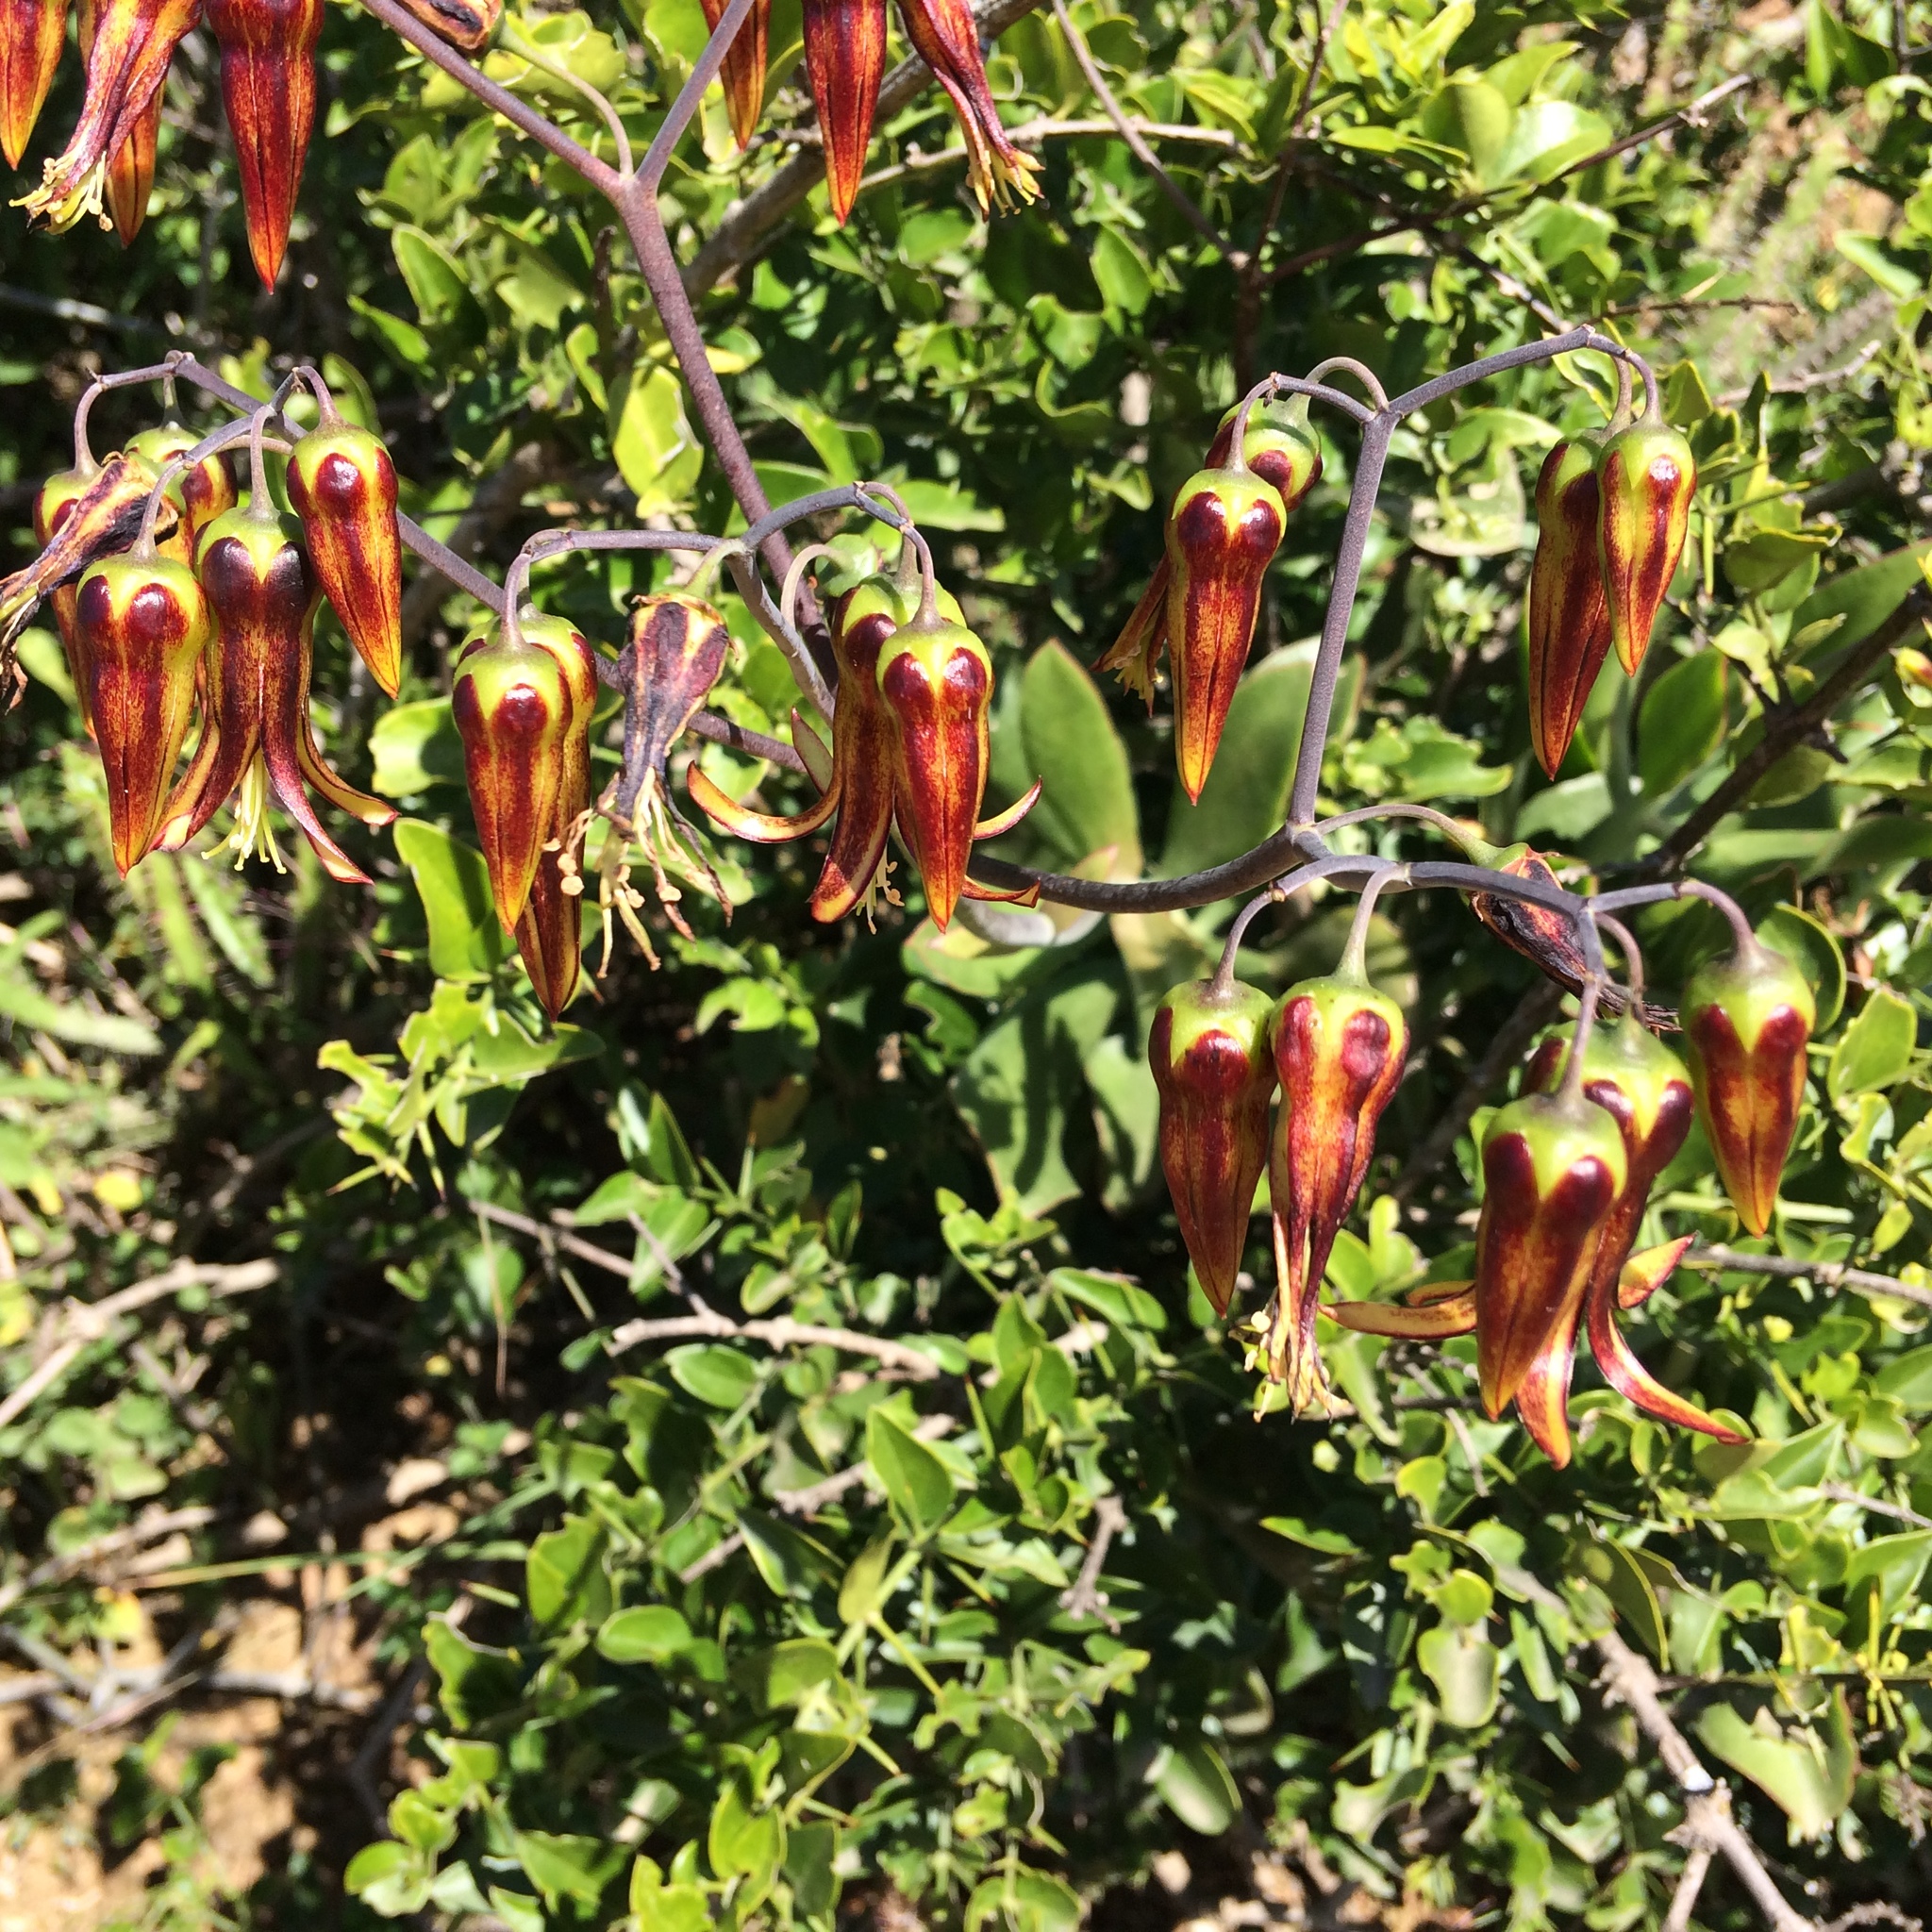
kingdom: Plantae
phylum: Tracheophyta
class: Magnoliopsida
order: Saxifragales
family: Crassulaceae
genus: Cotyledon
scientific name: Cotyledon velutina
